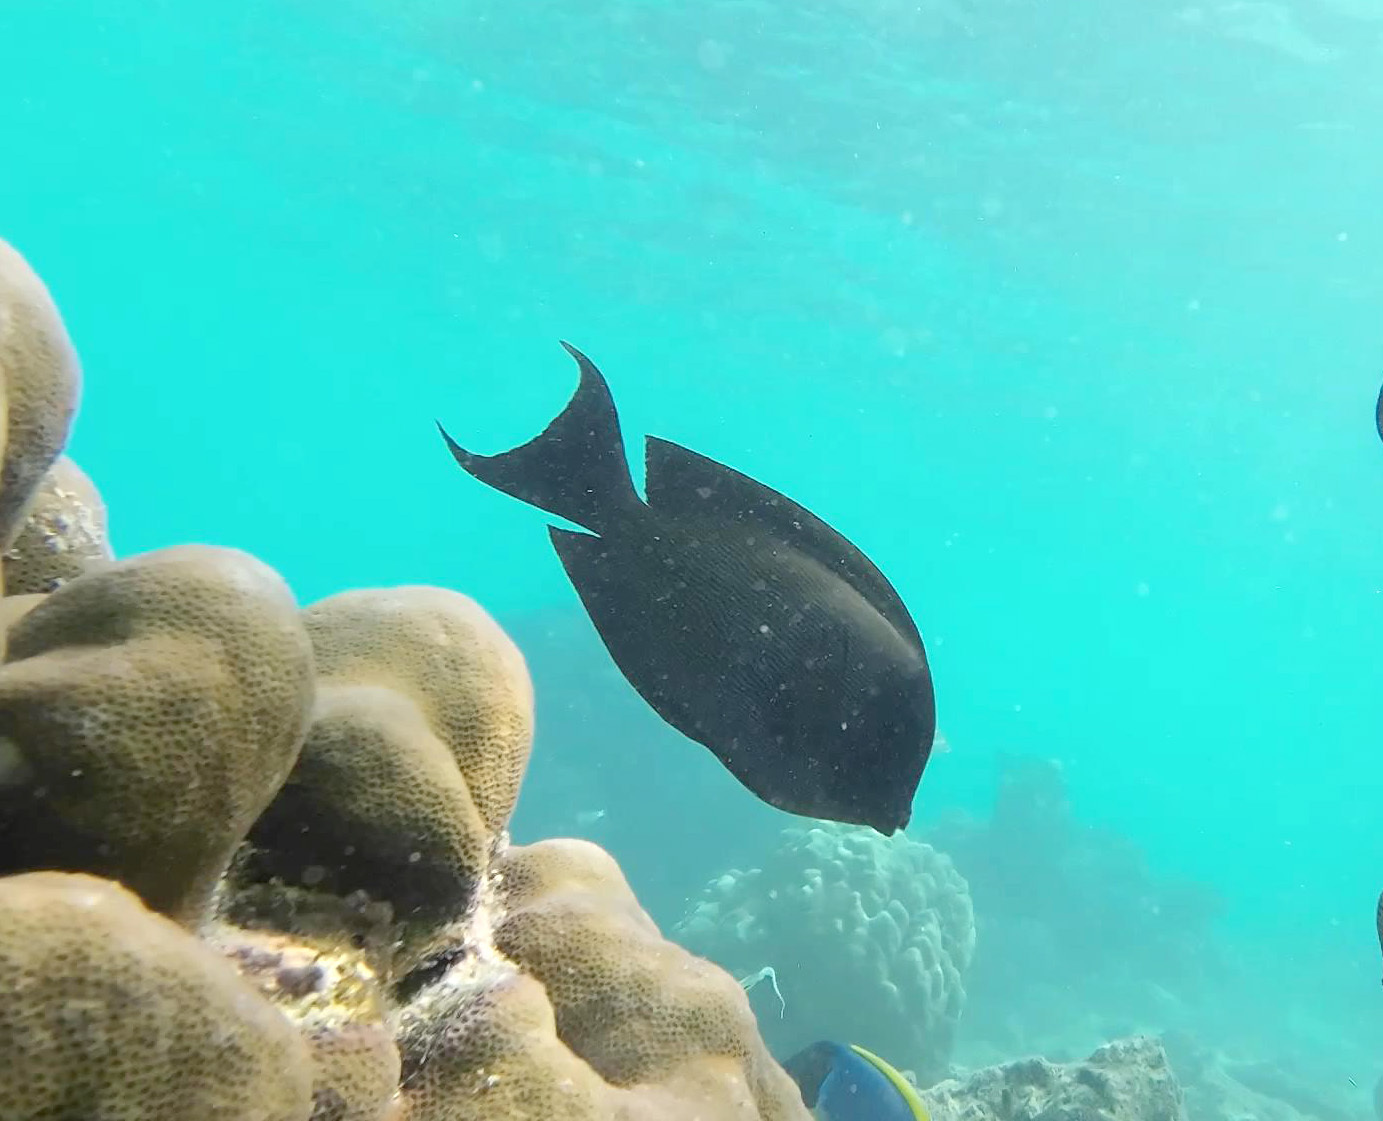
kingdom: Animalia
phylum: Chordata
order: Perciformes
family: Acanthuridae
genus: Ctenochaetus
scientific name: Ctenochaetus striatus
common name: Bristle-toothed surgeonfish
